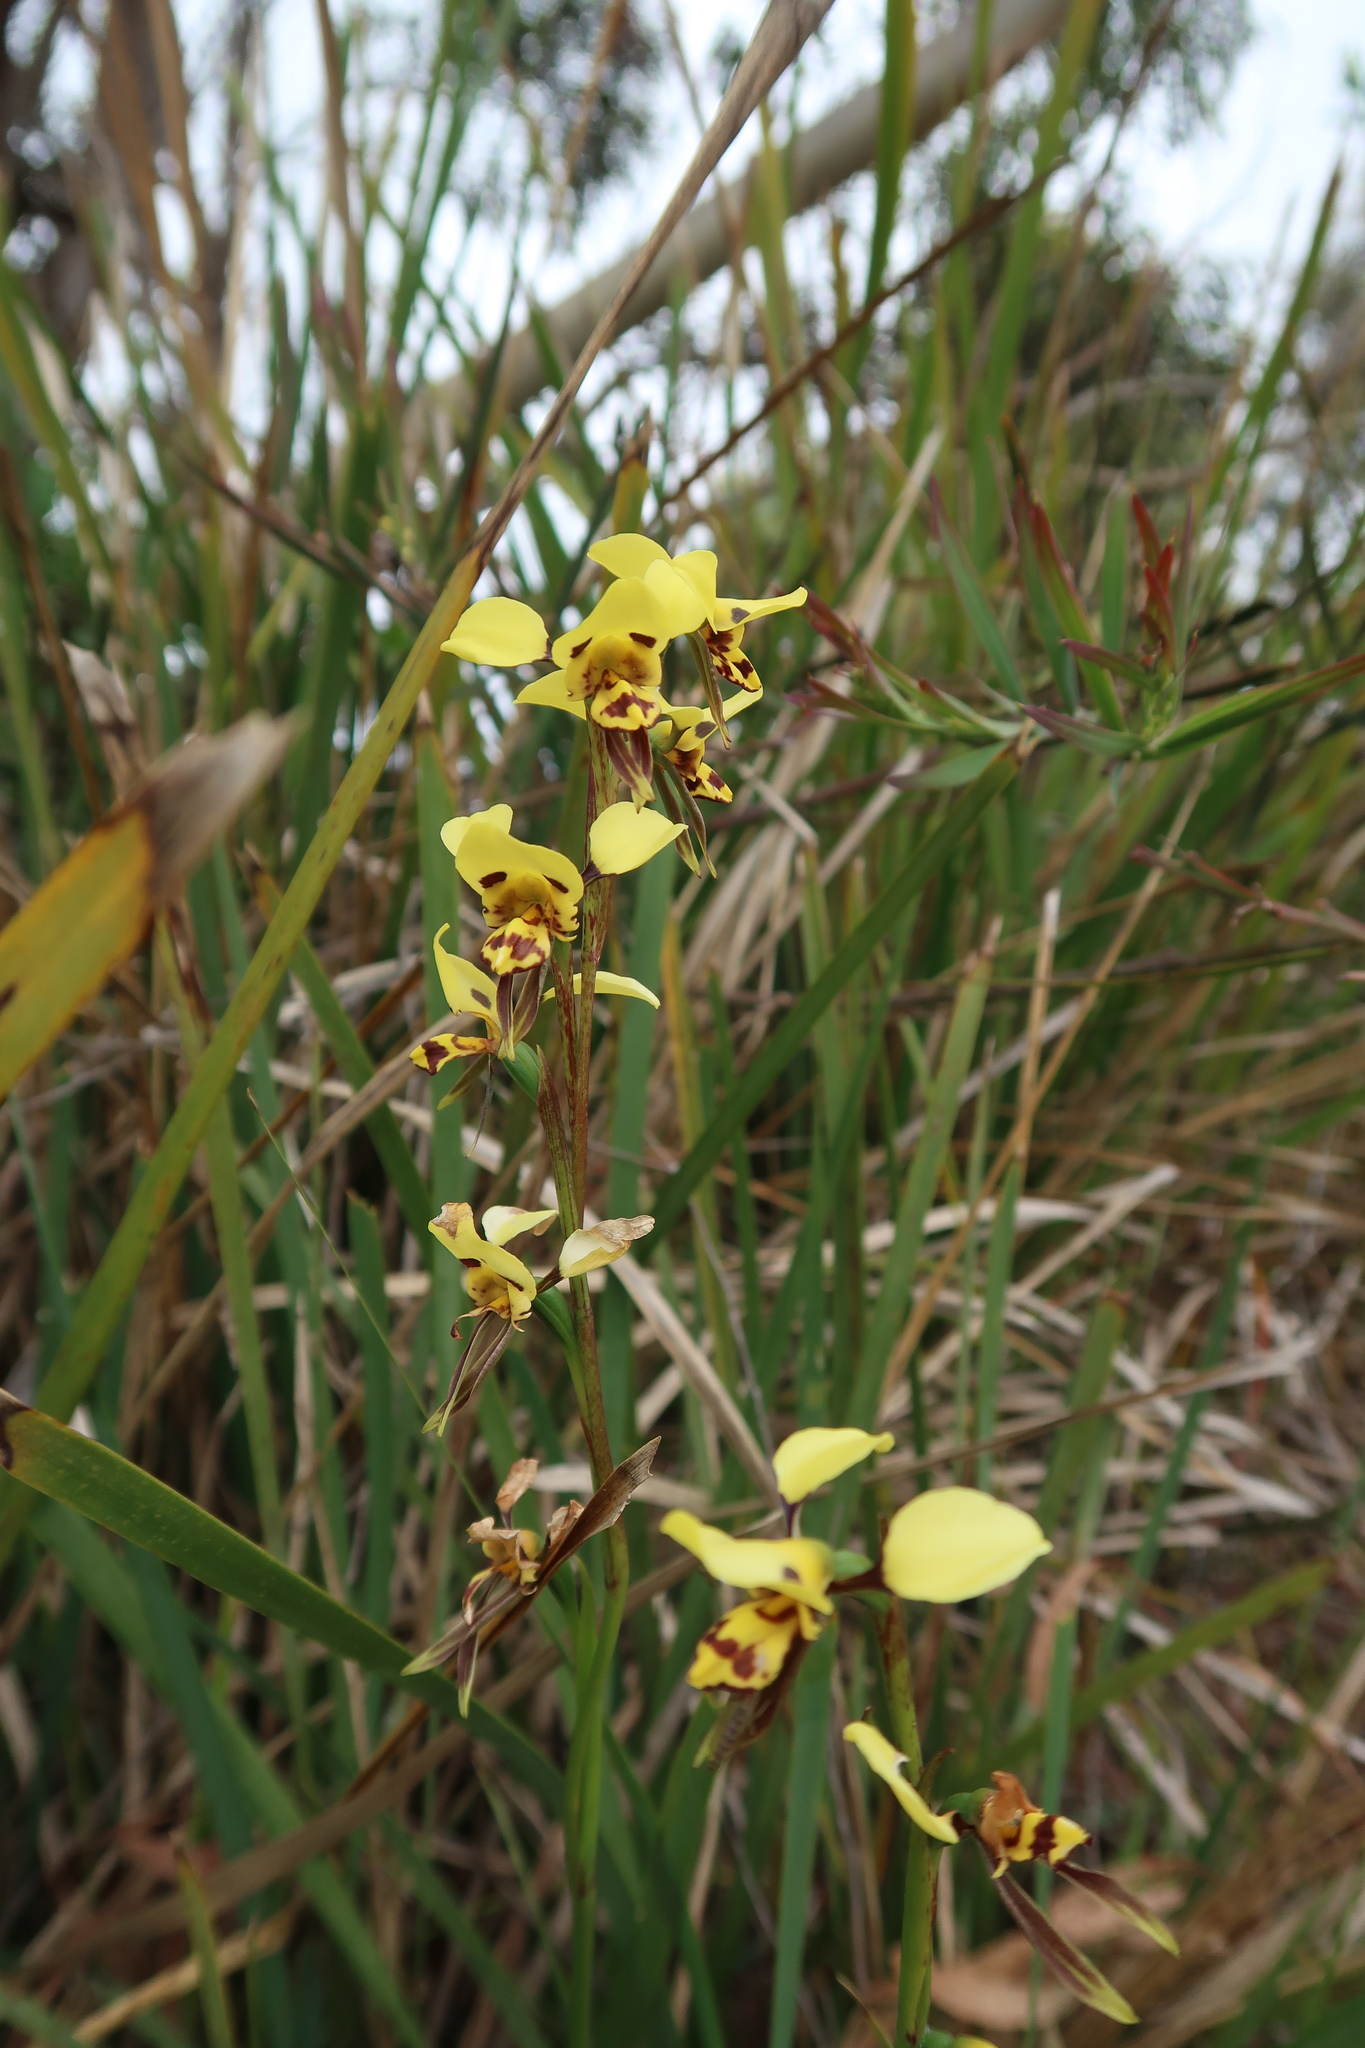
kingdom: Plantae
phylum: Tracheophyta
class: Liliopsida
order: Asparagales
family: Orchidaceae
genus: Diuris
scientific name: Diuris sulphurea
